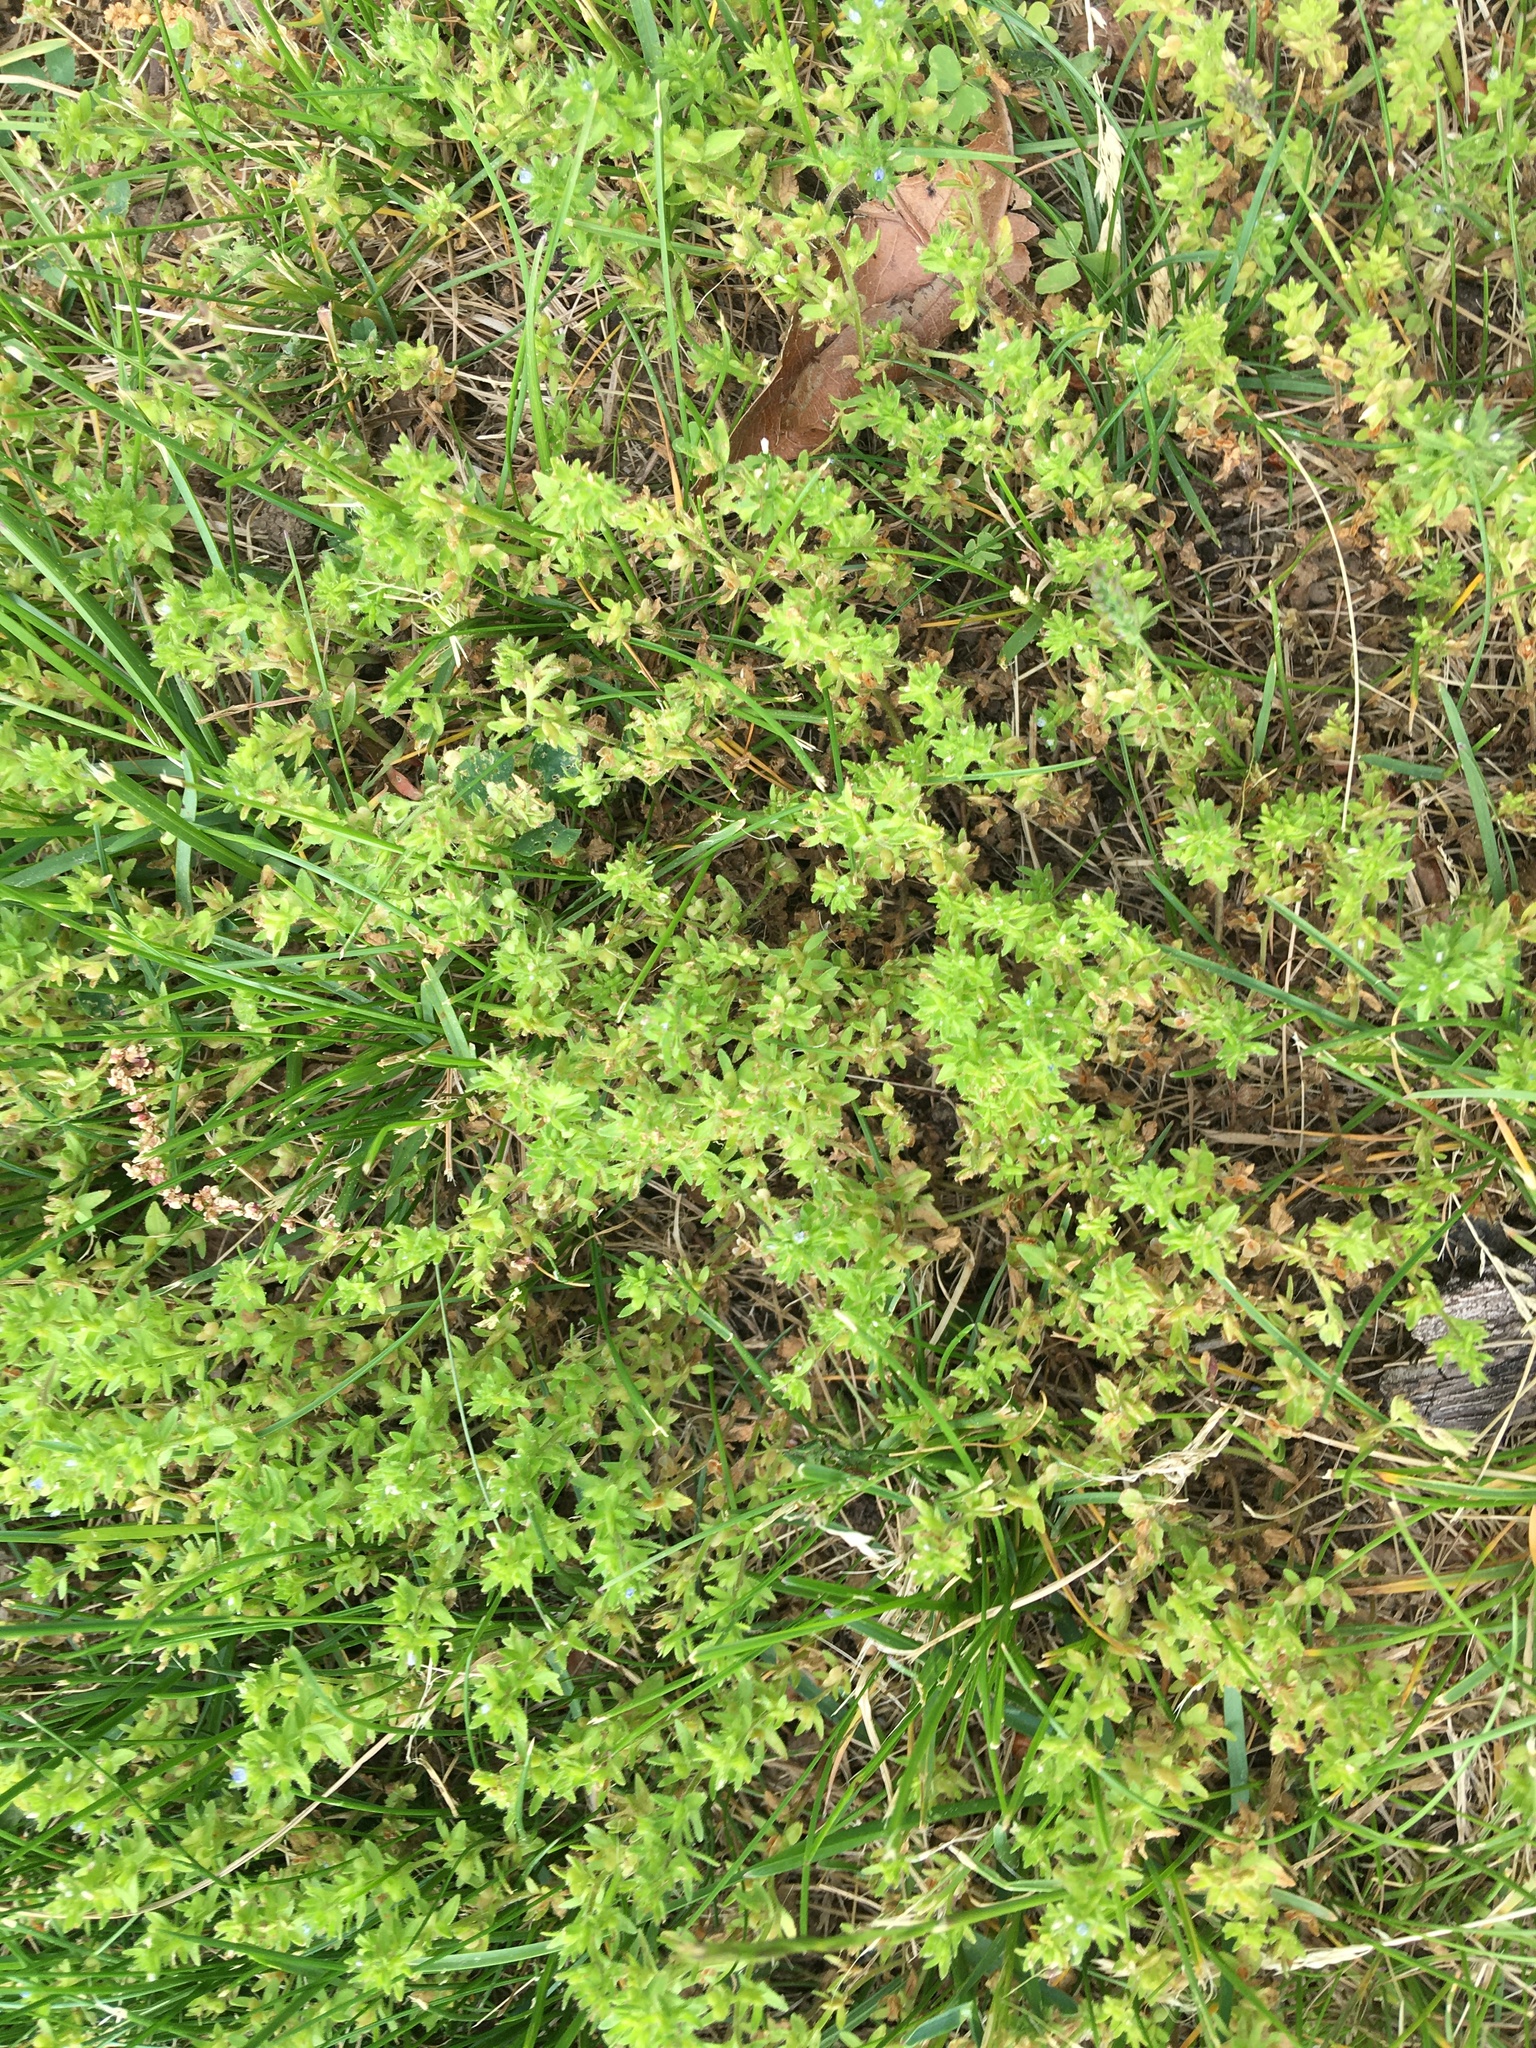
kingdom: Plantae
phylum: Tracheophyta
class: Magnoliopsida
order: Lamiales
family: Plantaginaceae
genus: Veronica
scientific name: Veronica arvensis
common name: Corn speedwell
